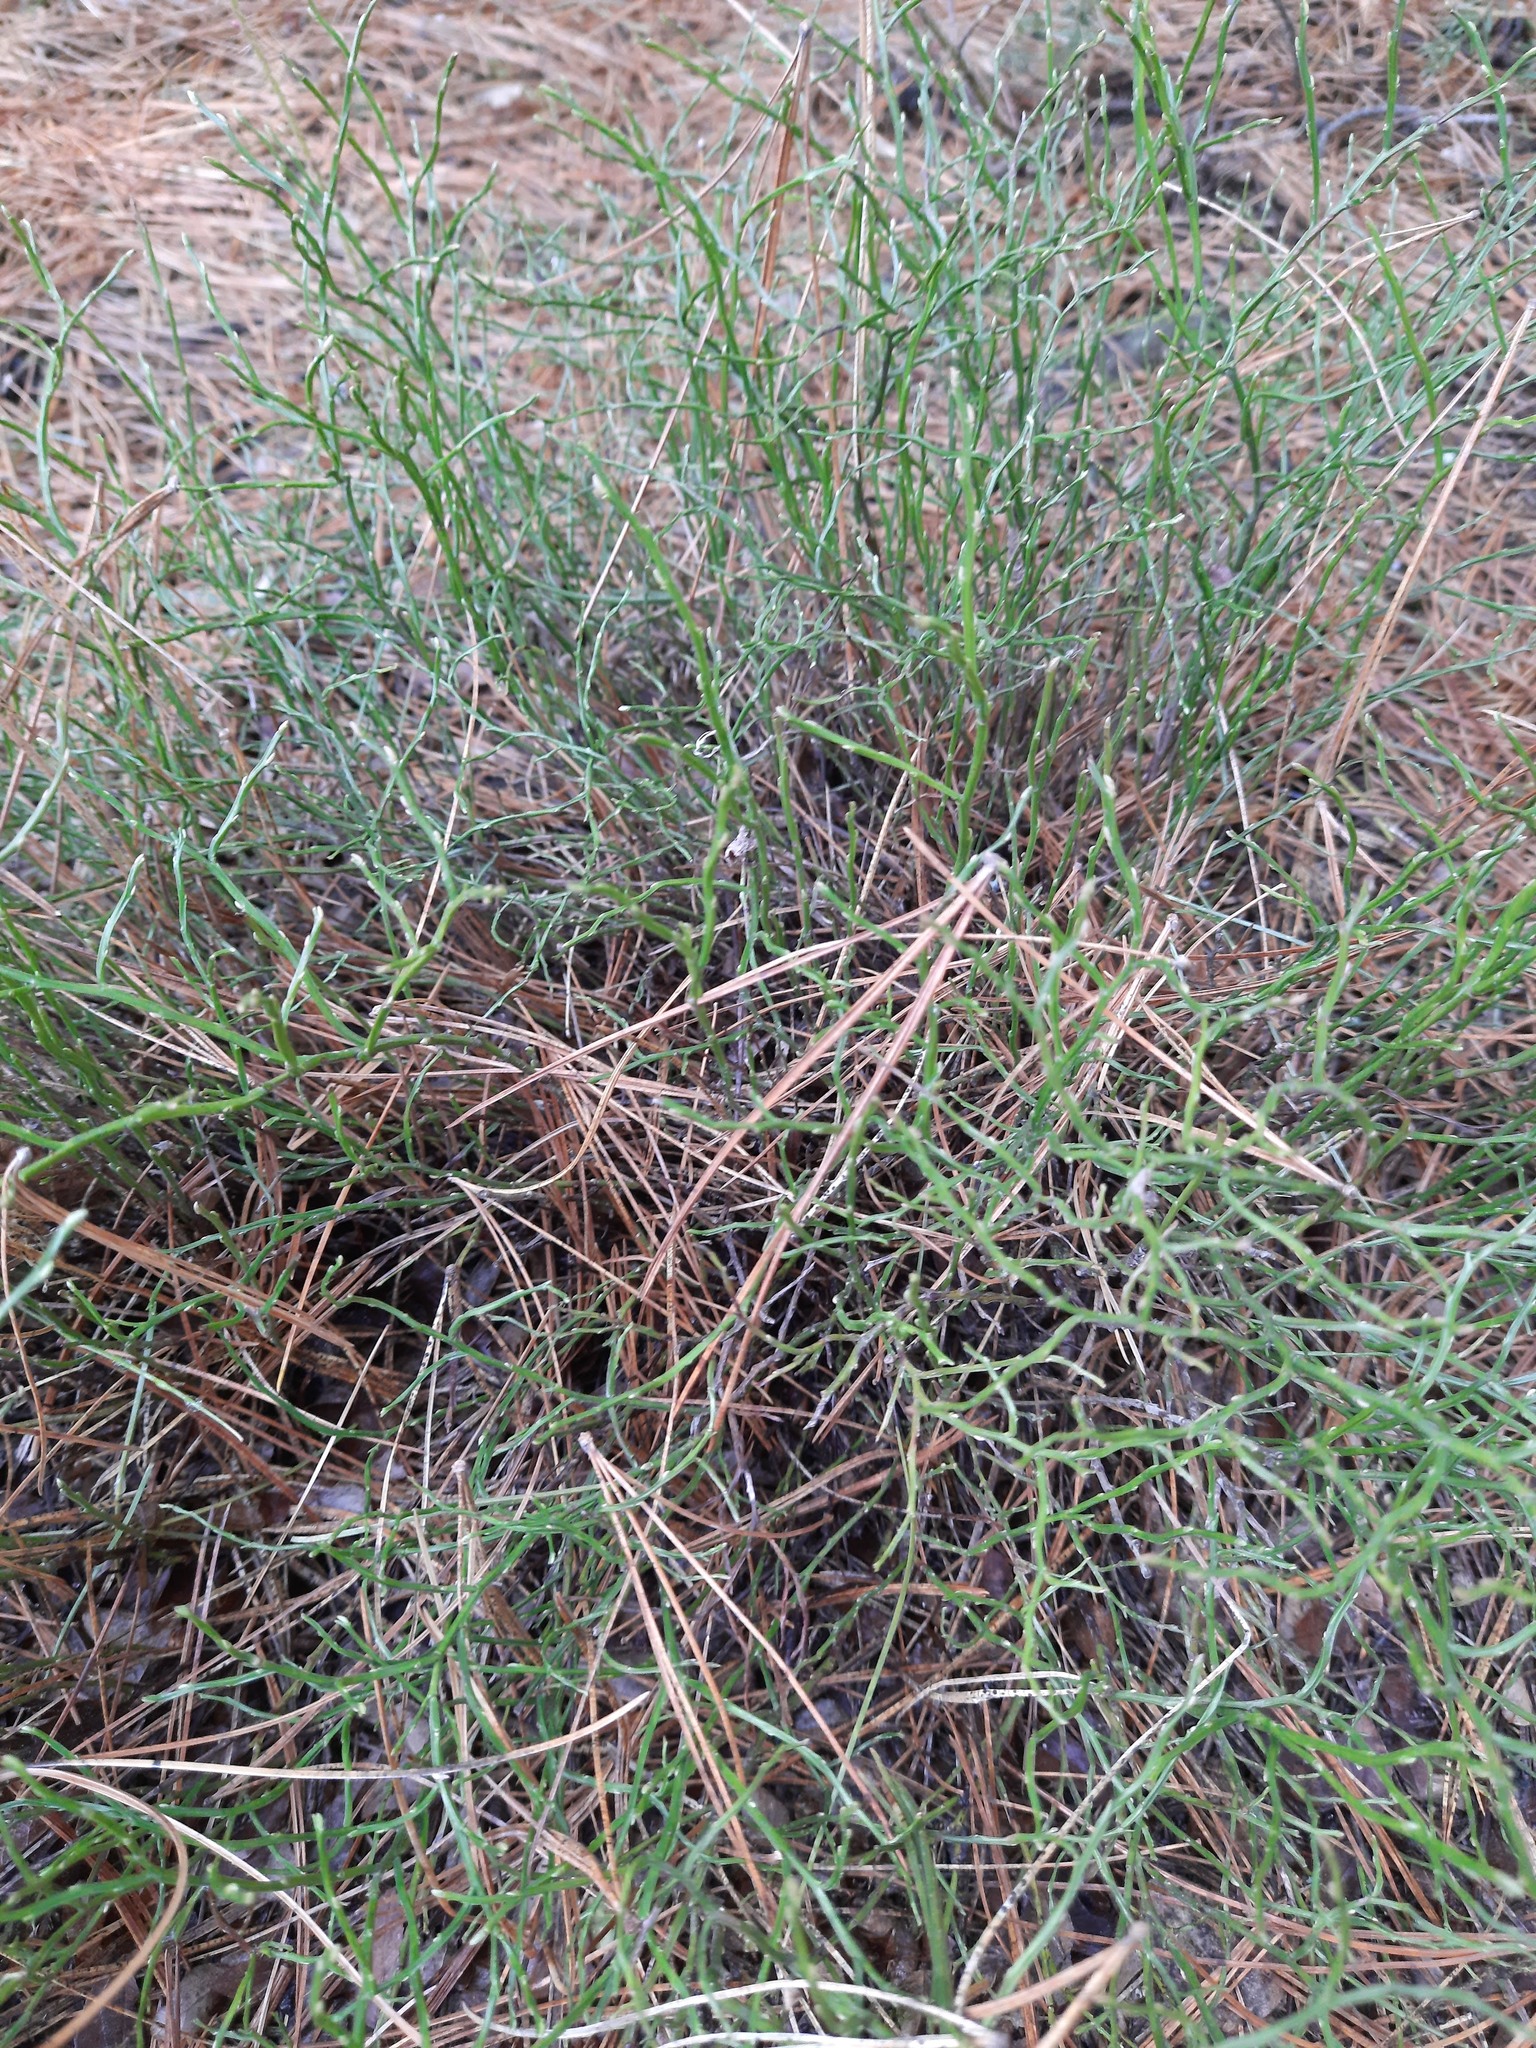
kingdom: Plantae
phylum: Tracheophyta
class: Magnoliopsida
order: Ericales
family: Ericaceae
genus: Vaccinium
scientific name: Vaccinium myrtillus
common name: Bilberry
